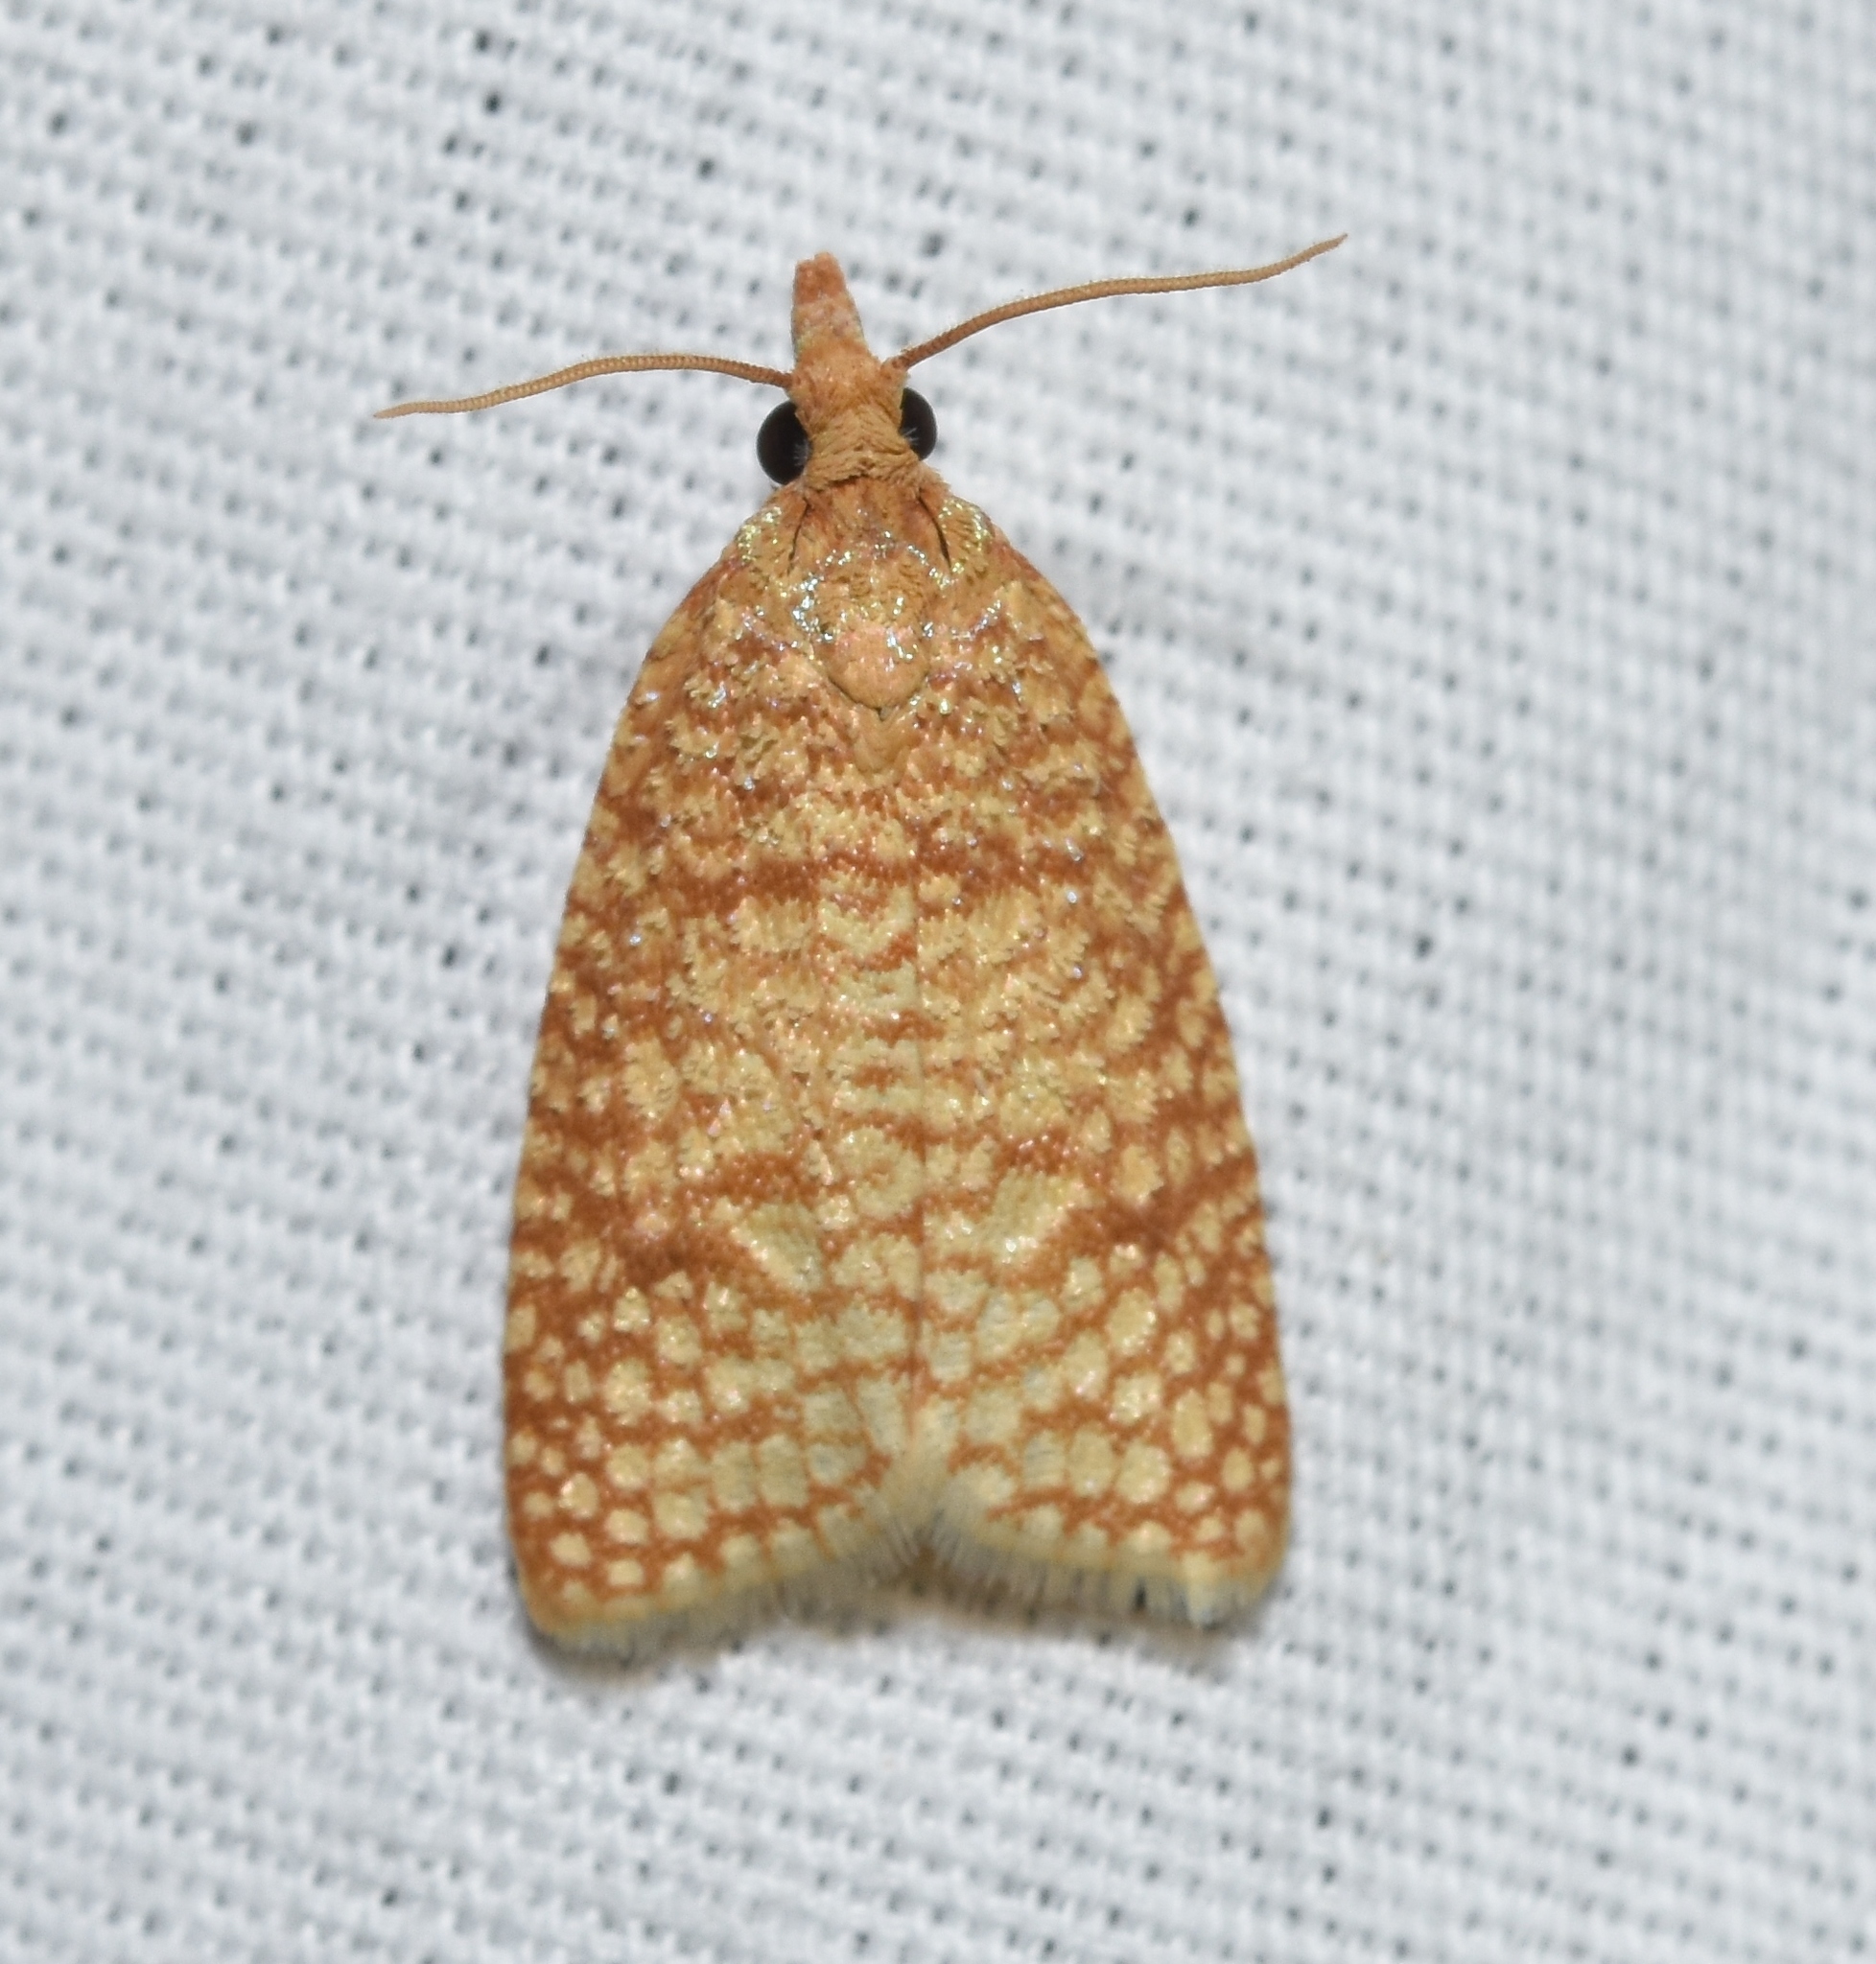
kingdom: Animalia
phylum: Arthropoda
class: Insecta
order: Lepidoptera
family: Tortricidae
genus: Sparganothis
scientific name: Sparganothis caryae
